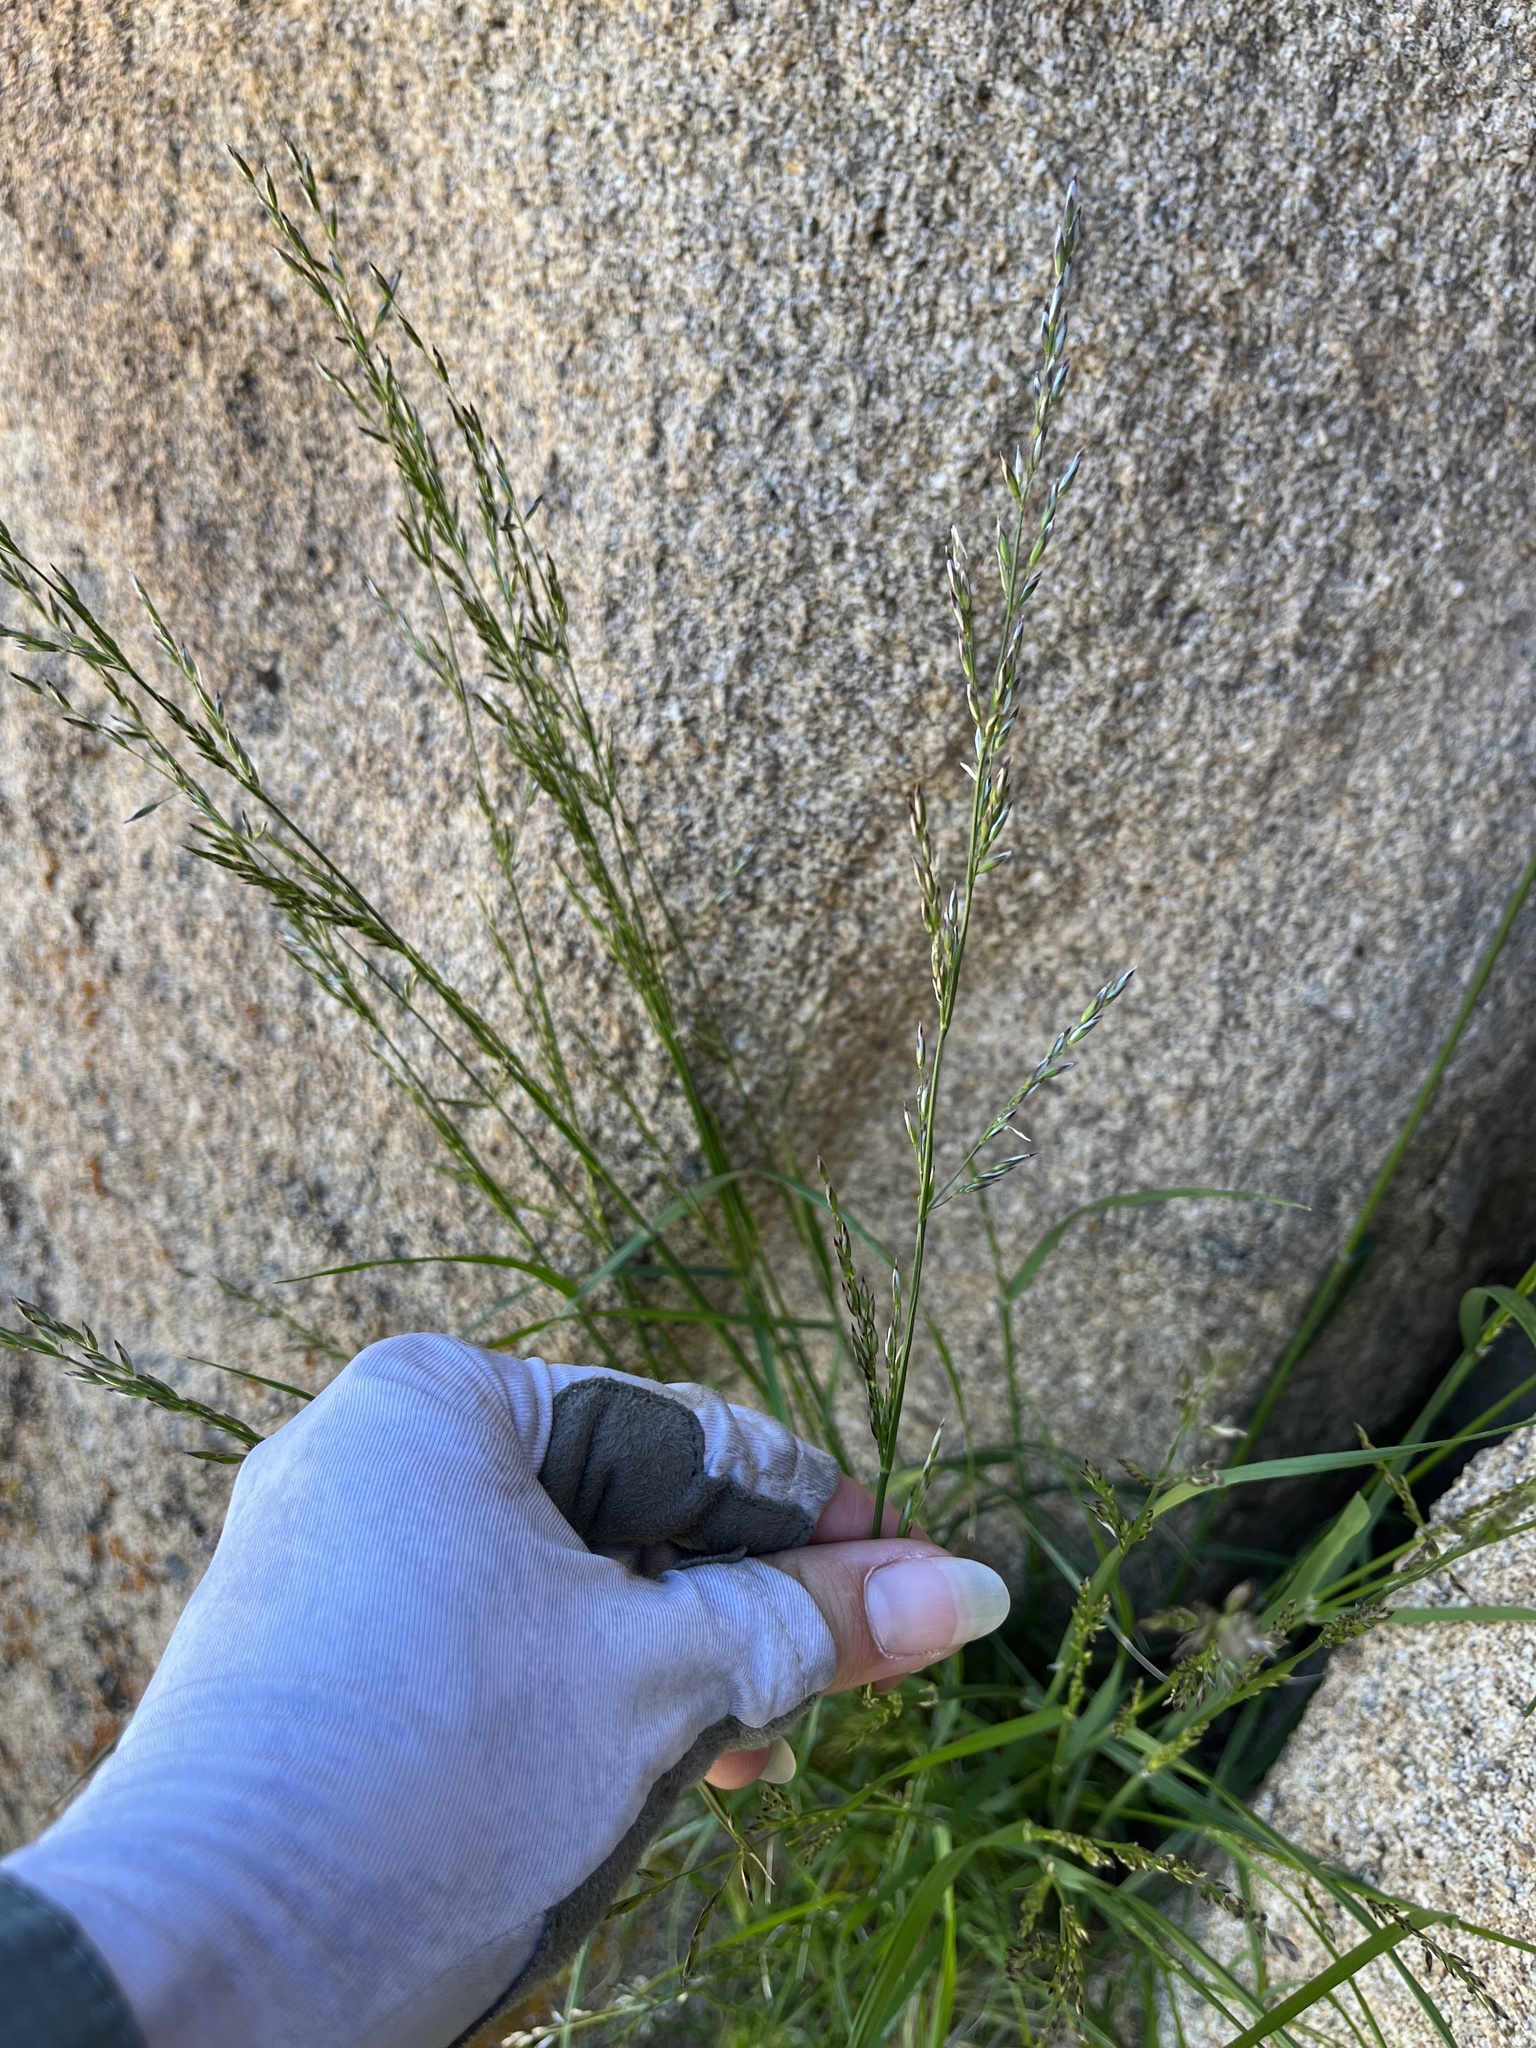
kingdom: Plantae
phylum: Tracheophyta
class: Liliopsida
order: Poales
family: Poaceae
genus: Melica
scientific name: Melica imperfecta
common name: California melic
